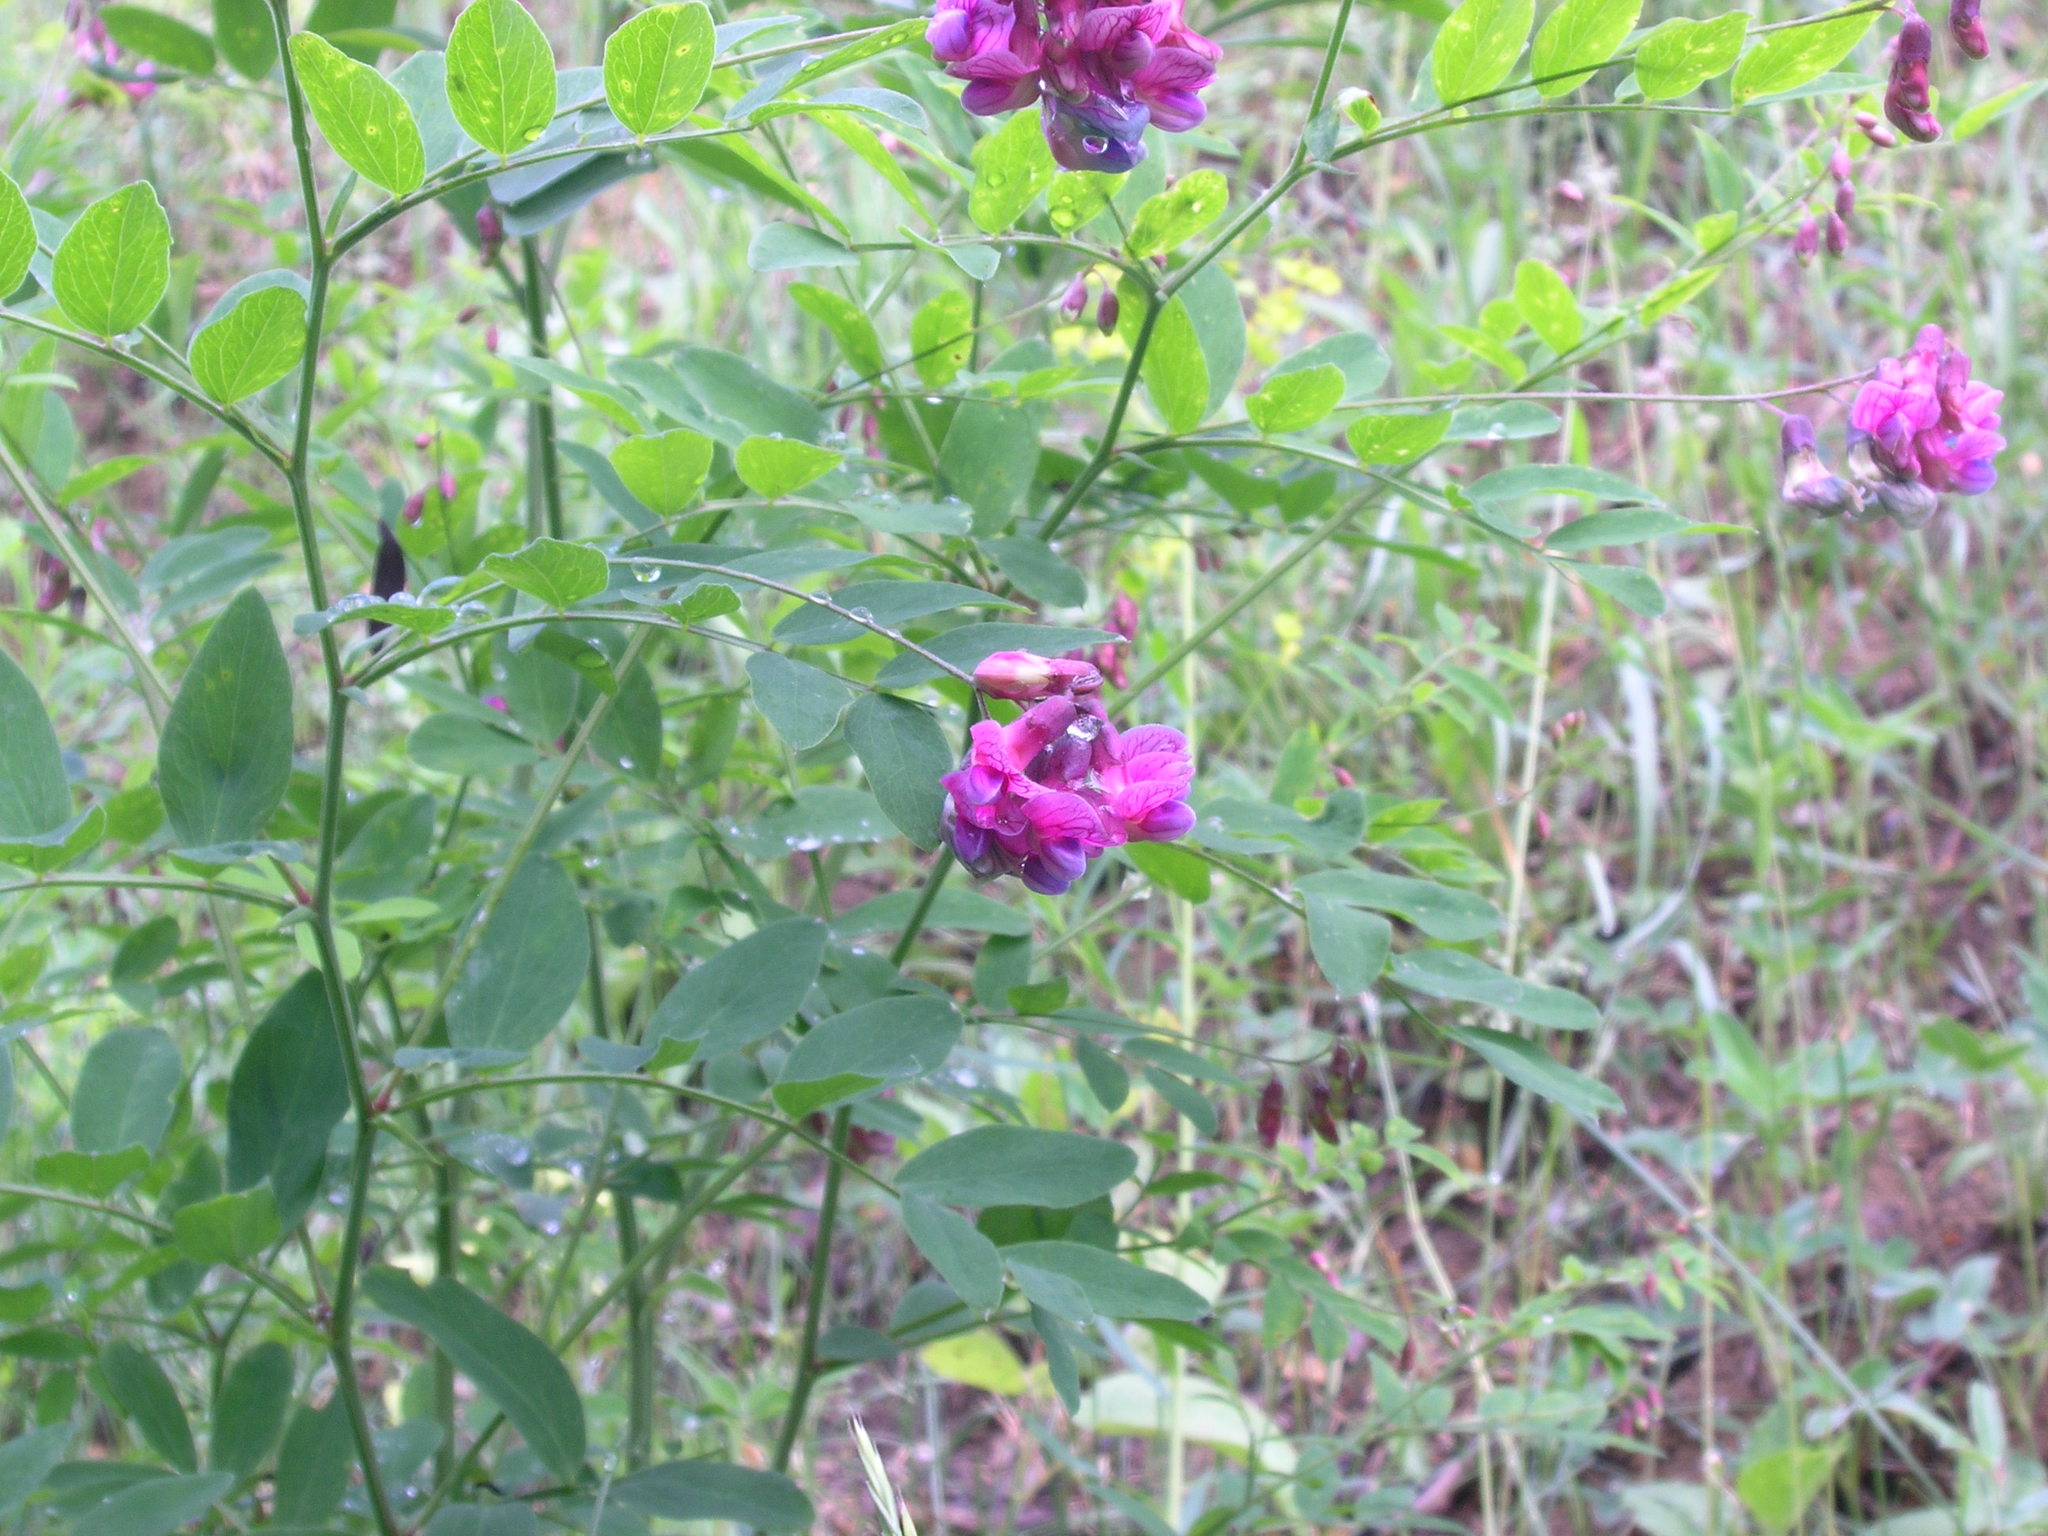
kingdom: Plantae
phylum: Tracheophyta
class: Magnoliopsida
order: Fabales
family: Fabaceae
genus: Lathyrus
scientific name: Lathyrus niger
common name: Black pea
